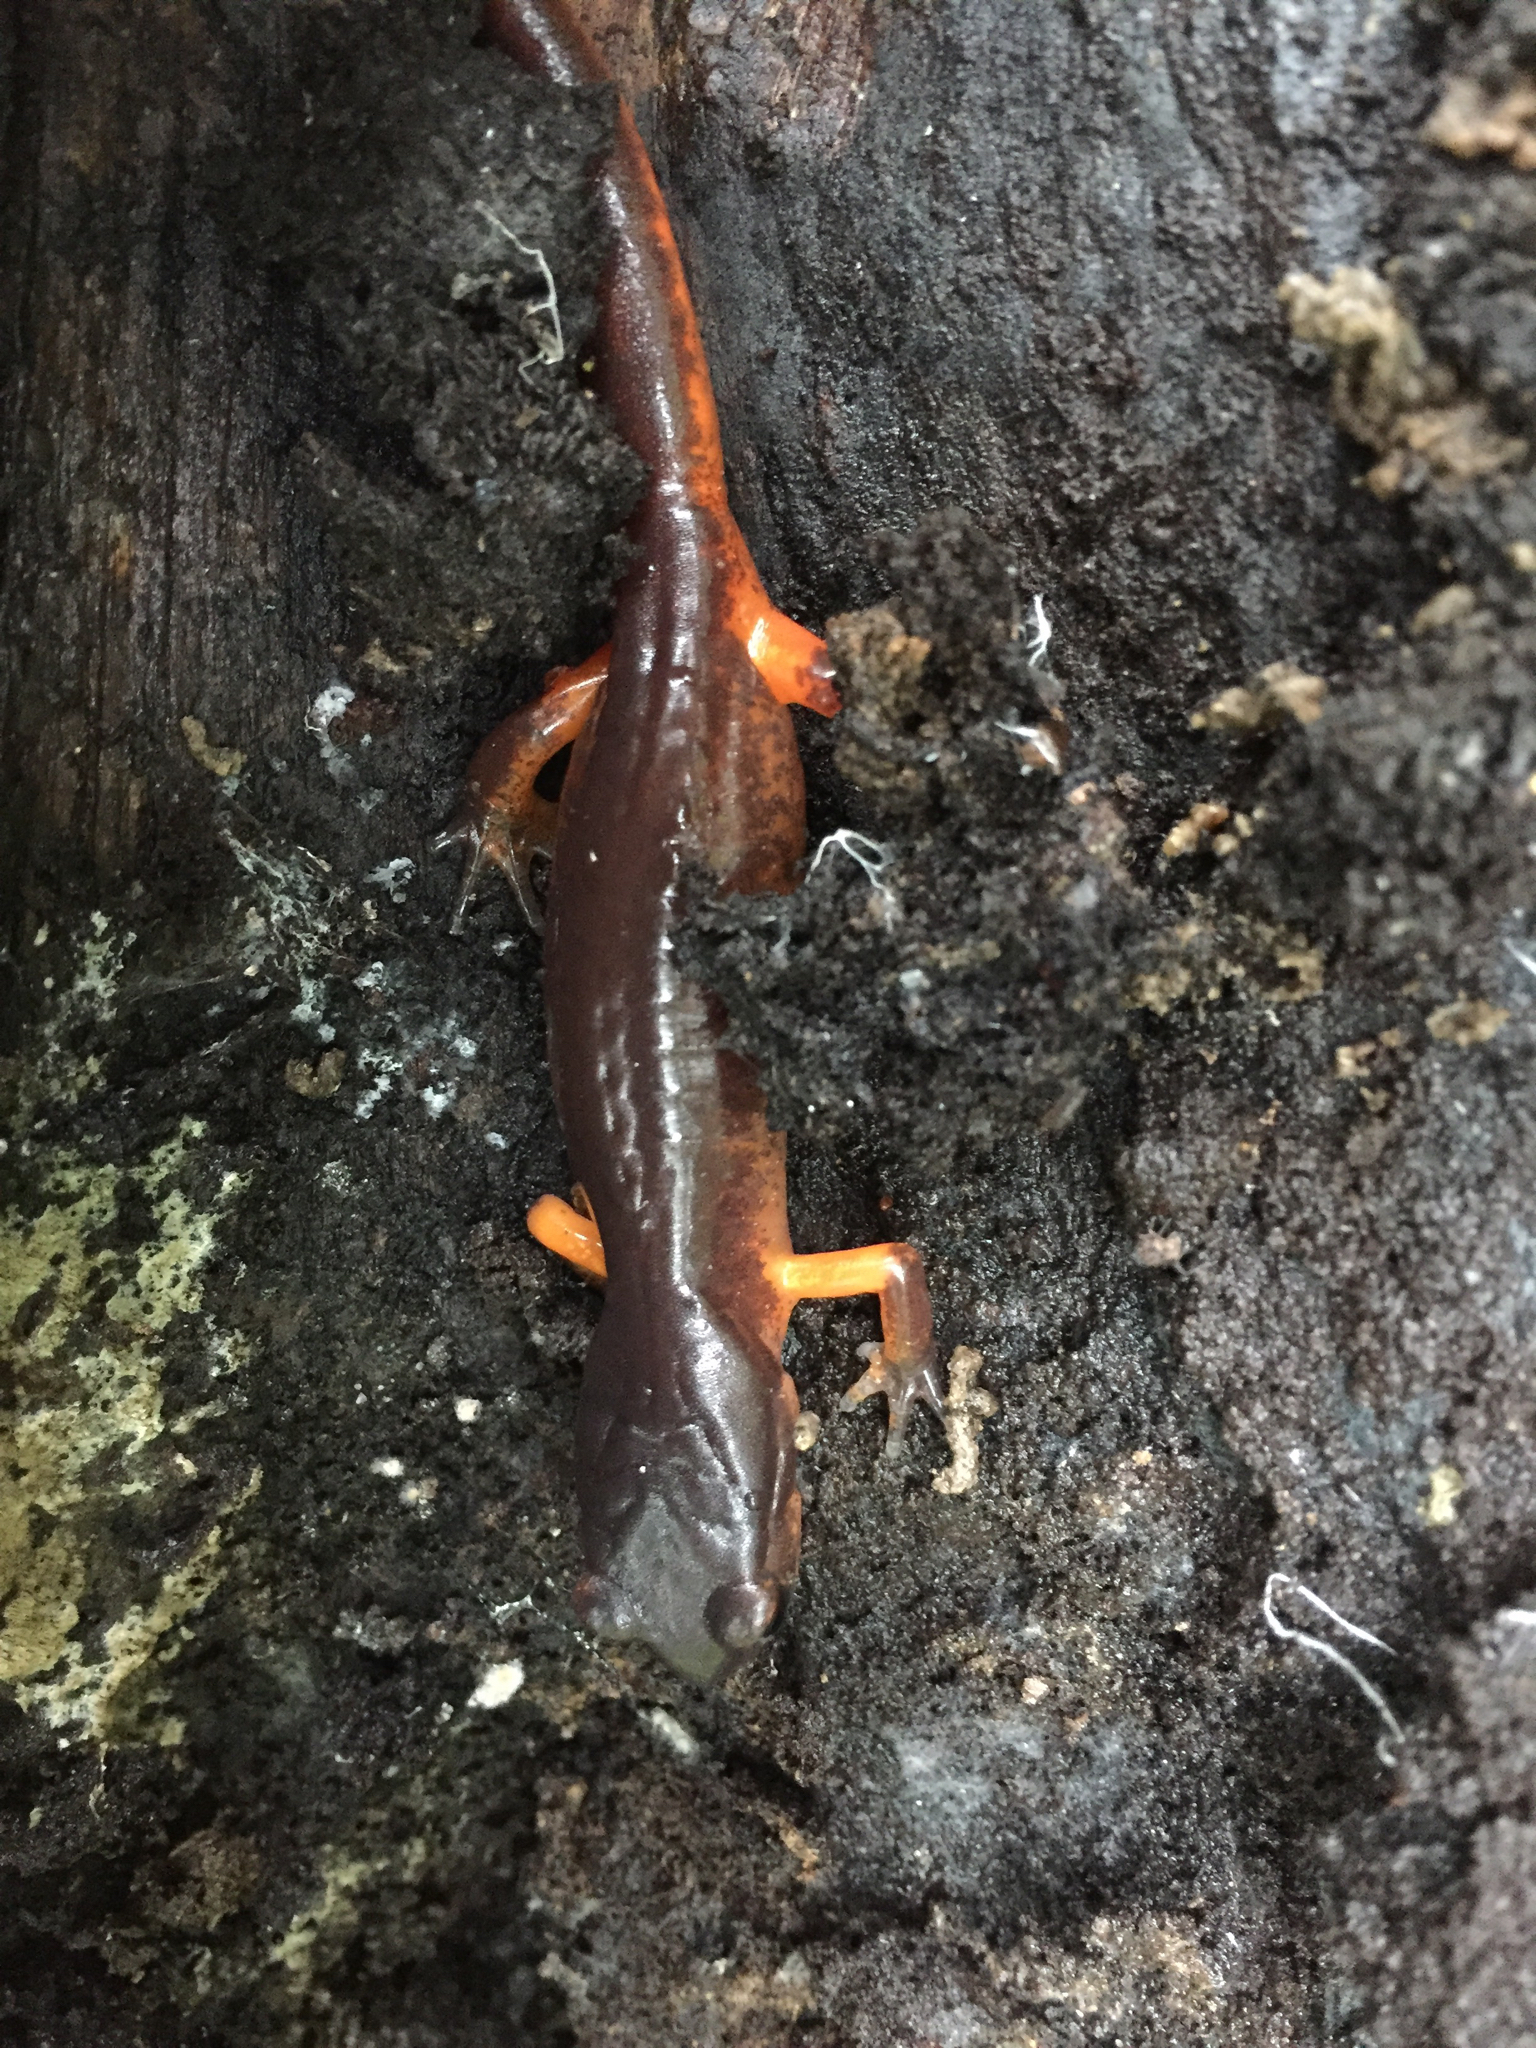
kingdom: Animalia
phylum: Chordata
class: Amphibia
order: Caudata
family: Plethodontidae
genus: Ensatina
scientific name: Ensatina eschscholtzii
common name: Ensatina
